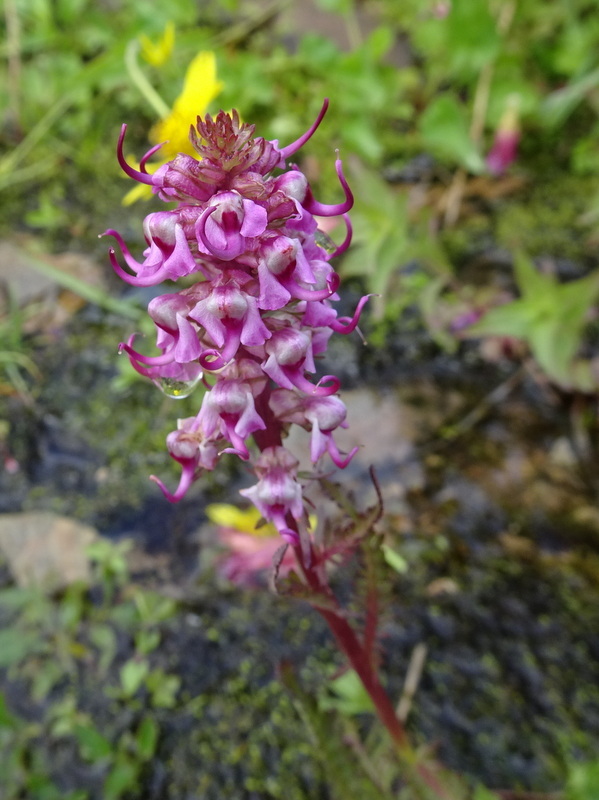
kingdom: Plantae
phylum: Tracheophyta
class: Magnoliopsida
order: Lamiales
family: Orobanchaceae
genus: Pedicularis
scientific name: Pedicularis groenlandica
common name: Elephant's-head
